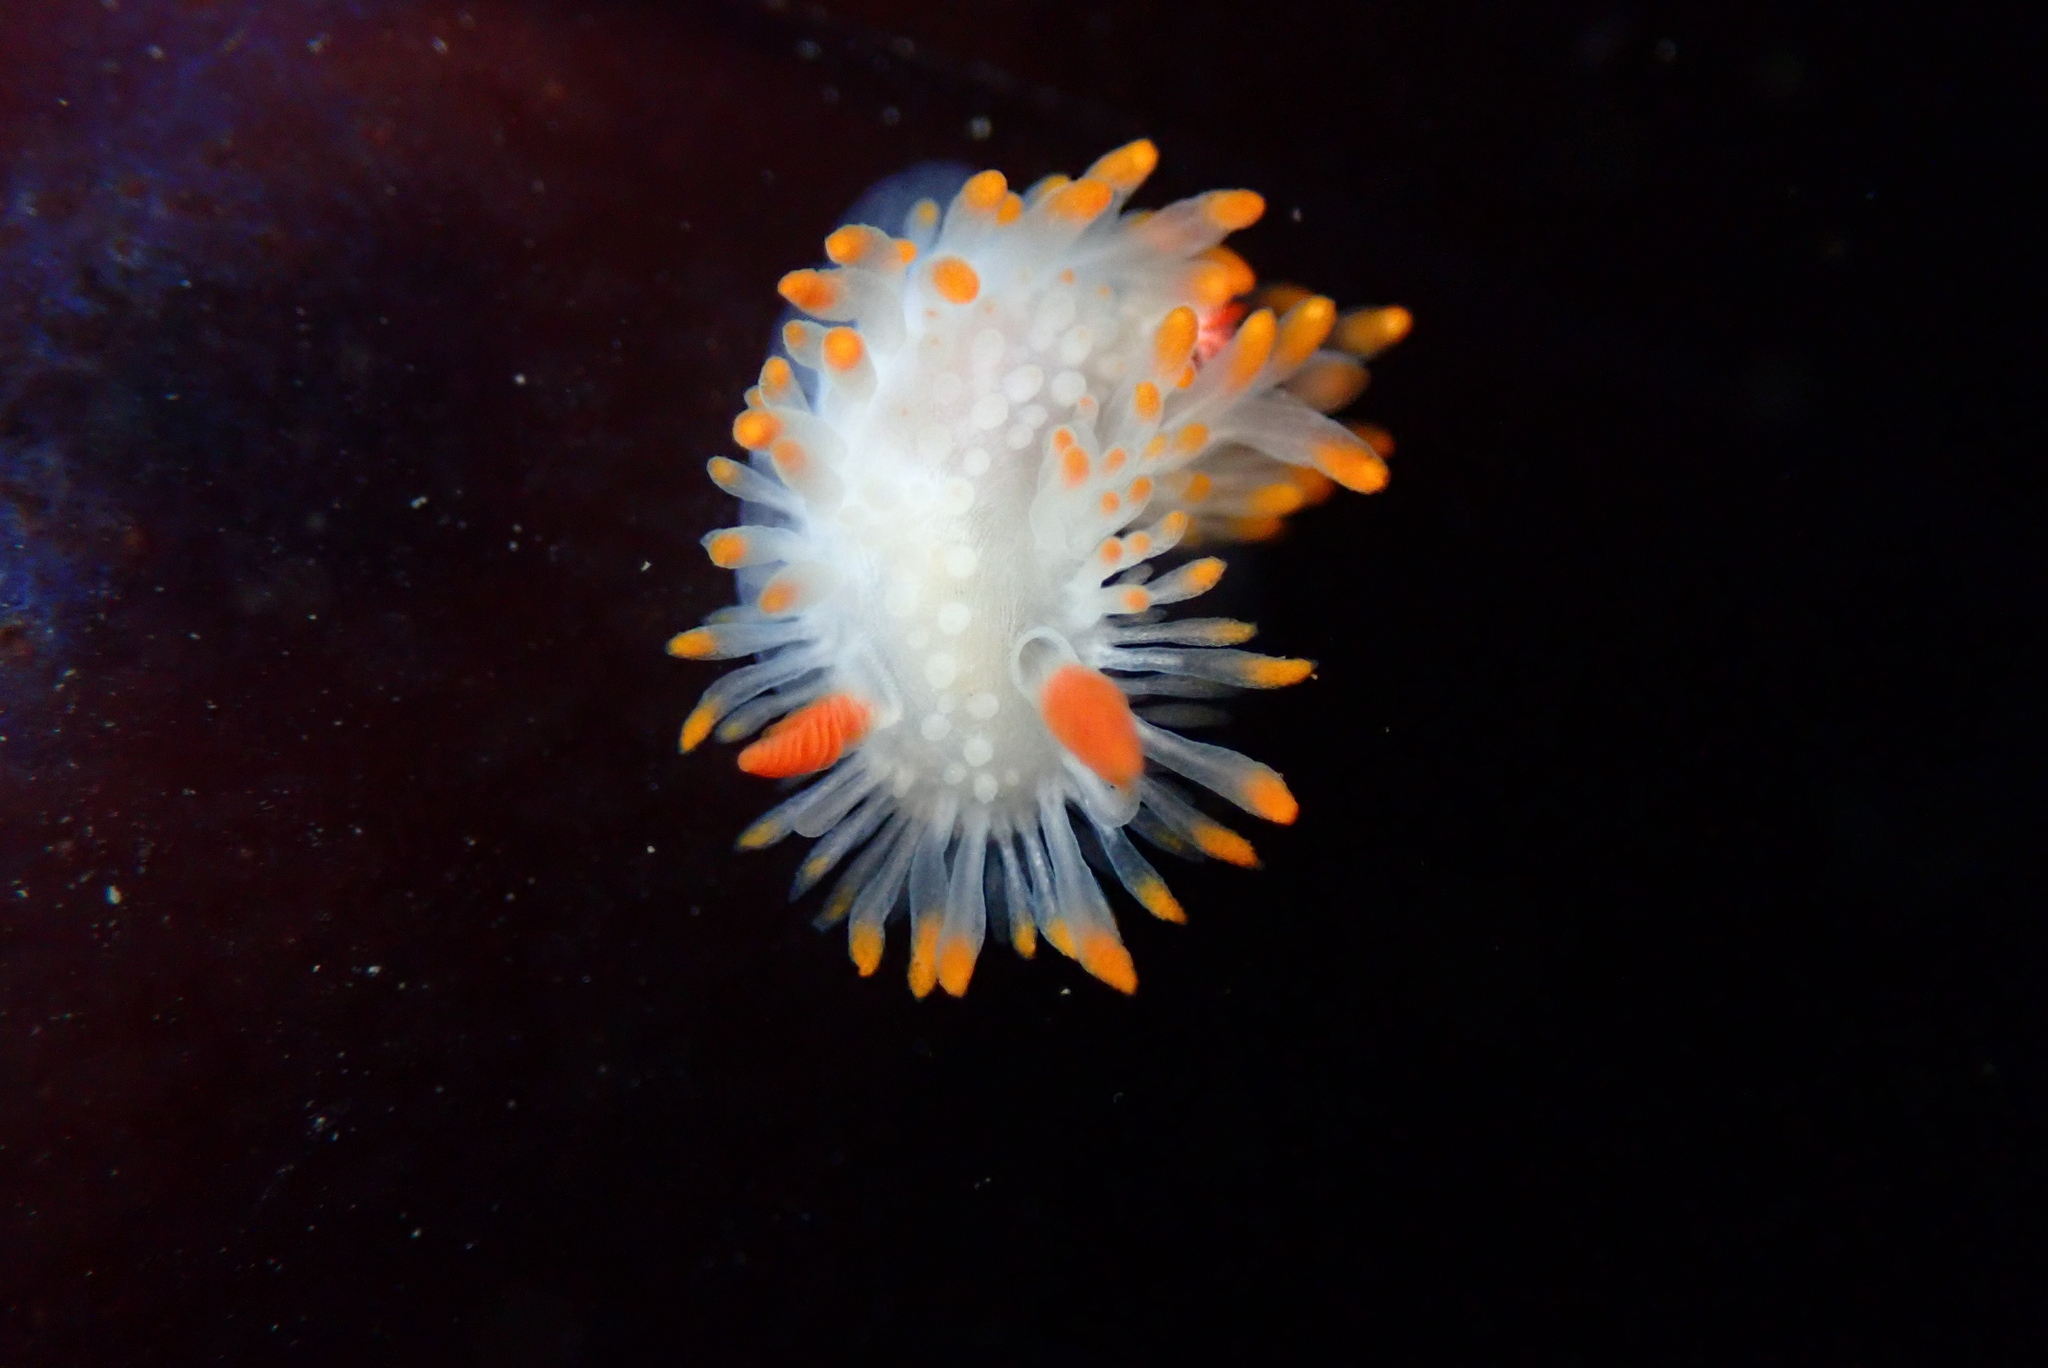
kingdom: Animalia
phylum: Mollusca
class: Gastropoda
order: Nudibranchia
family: Polyceridae
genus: Limacia
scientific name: Limacia cockerelli
